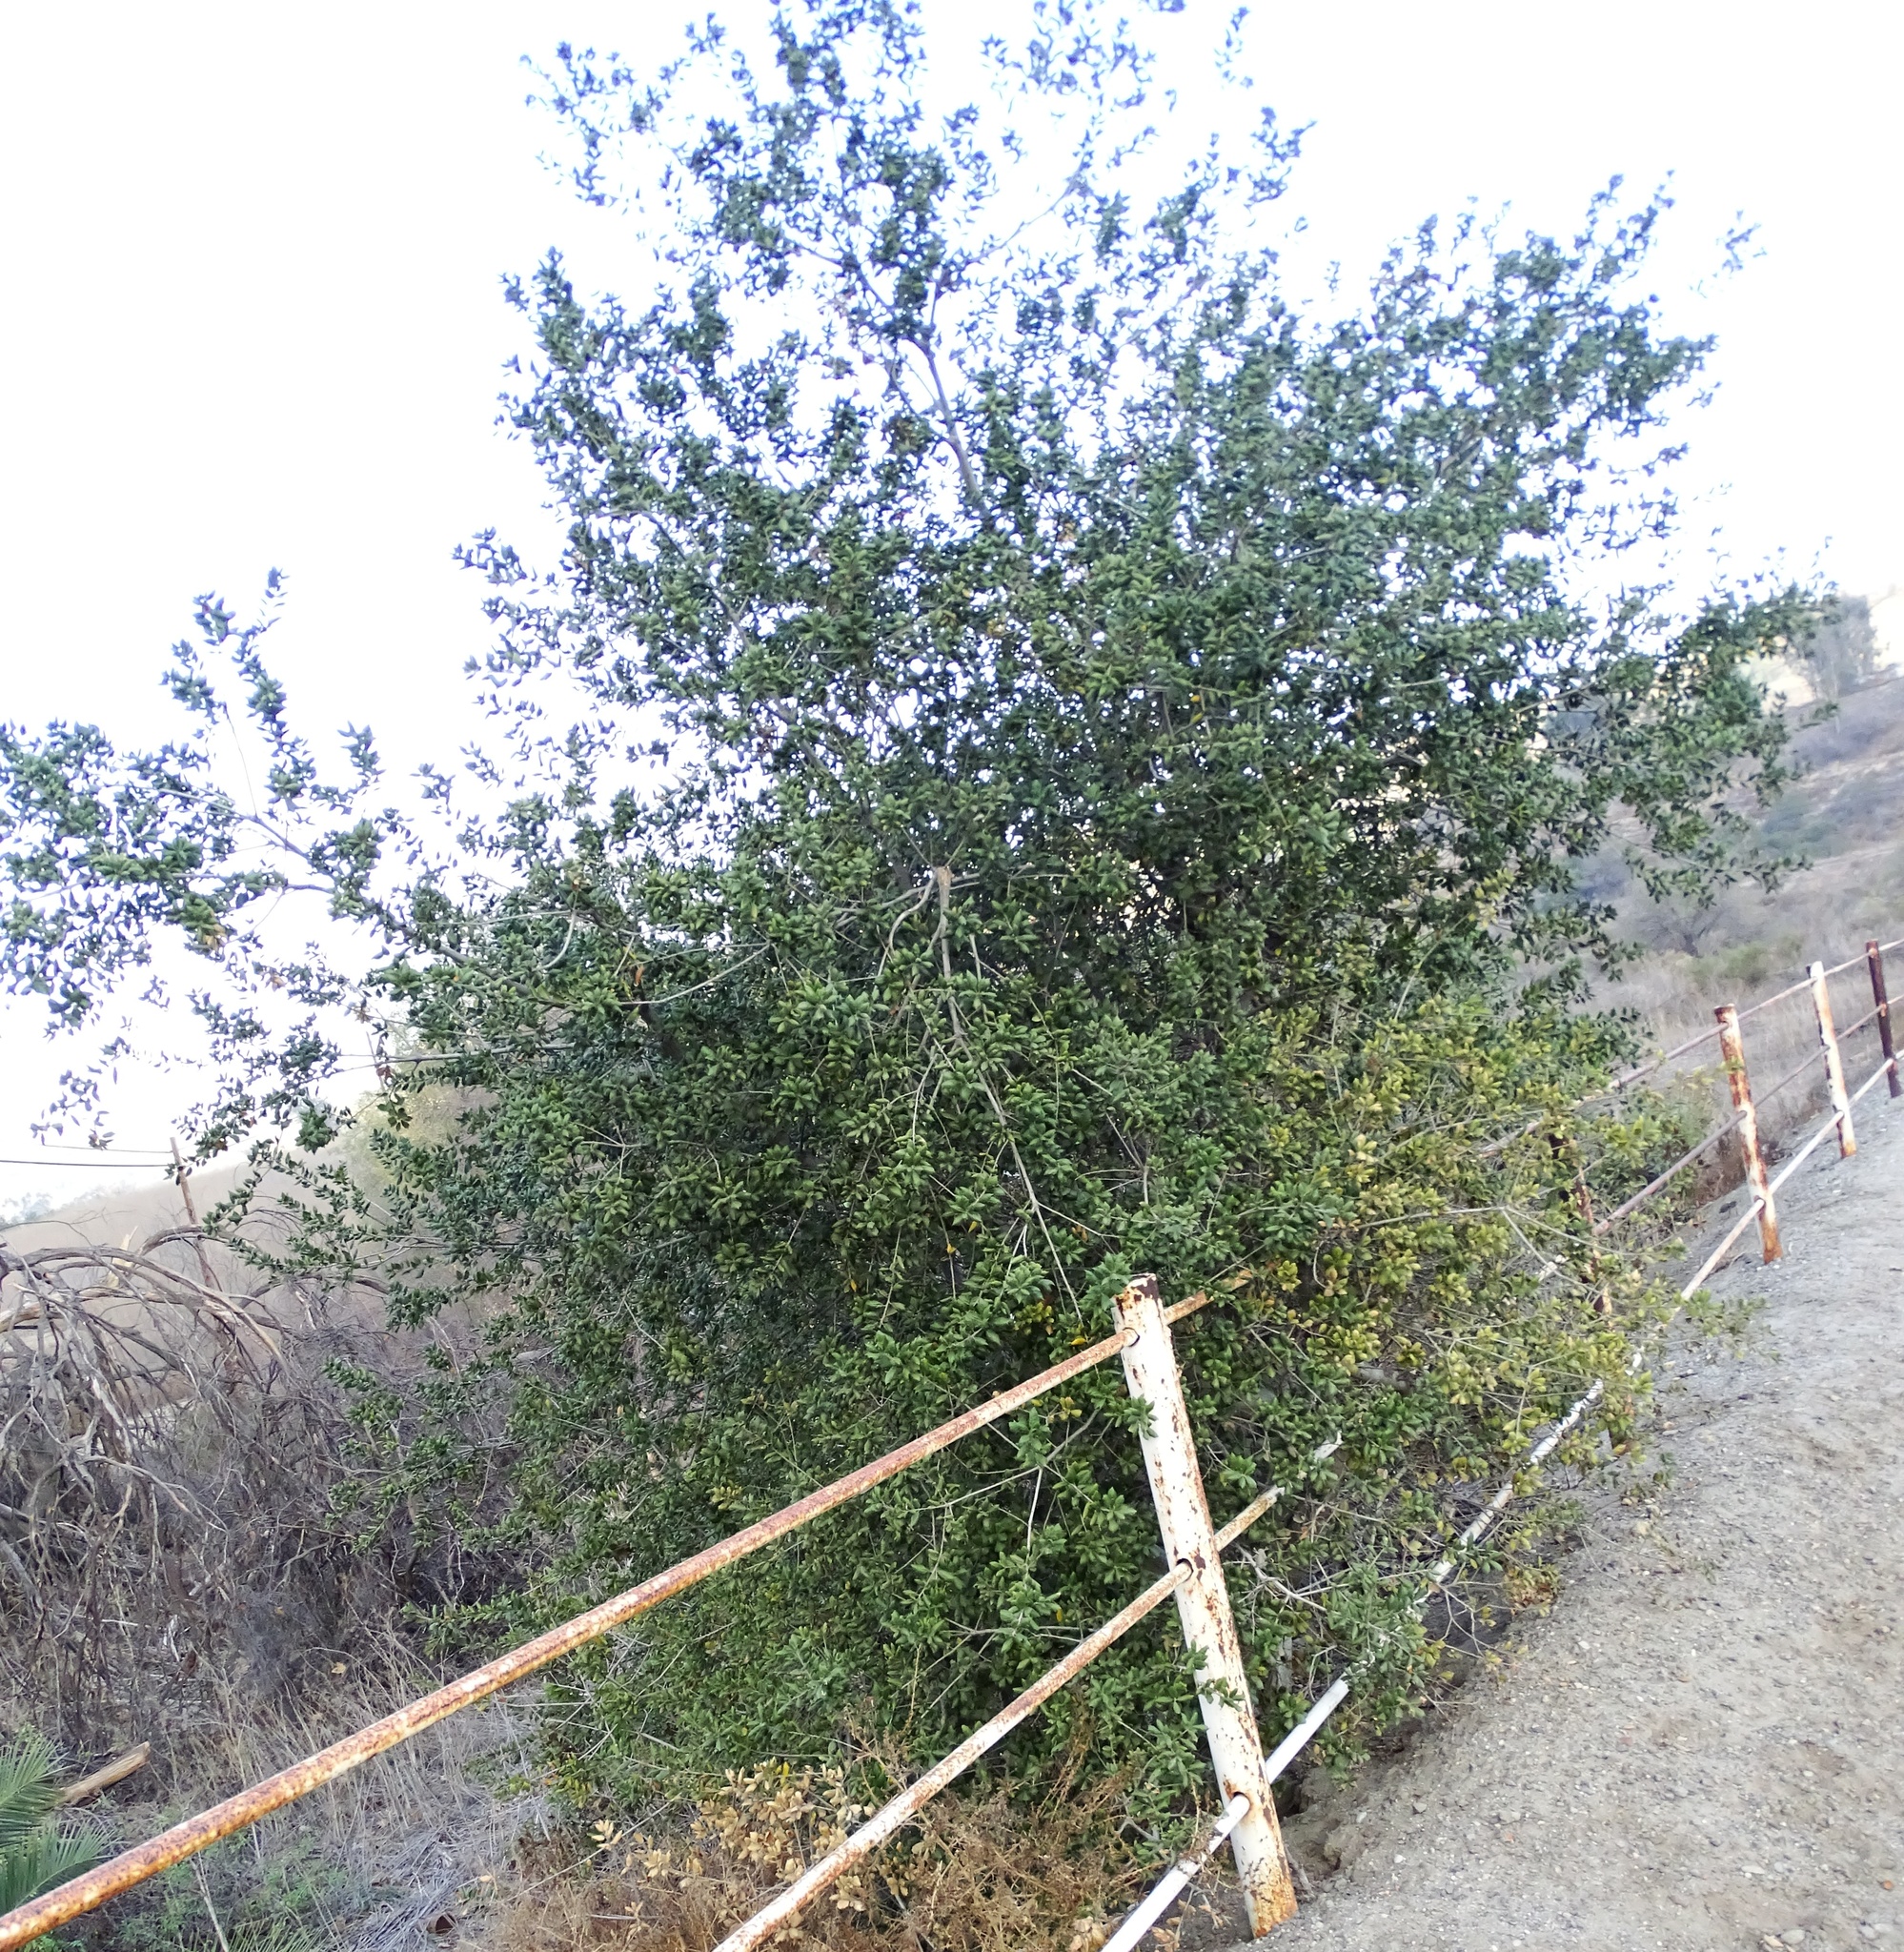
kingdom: Plantae
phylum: Tracheophyta
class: Magnoliopsida
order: Fagales
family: Fagaceae
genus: Quercus
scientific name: Quercus agrifolia
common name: California live oak
